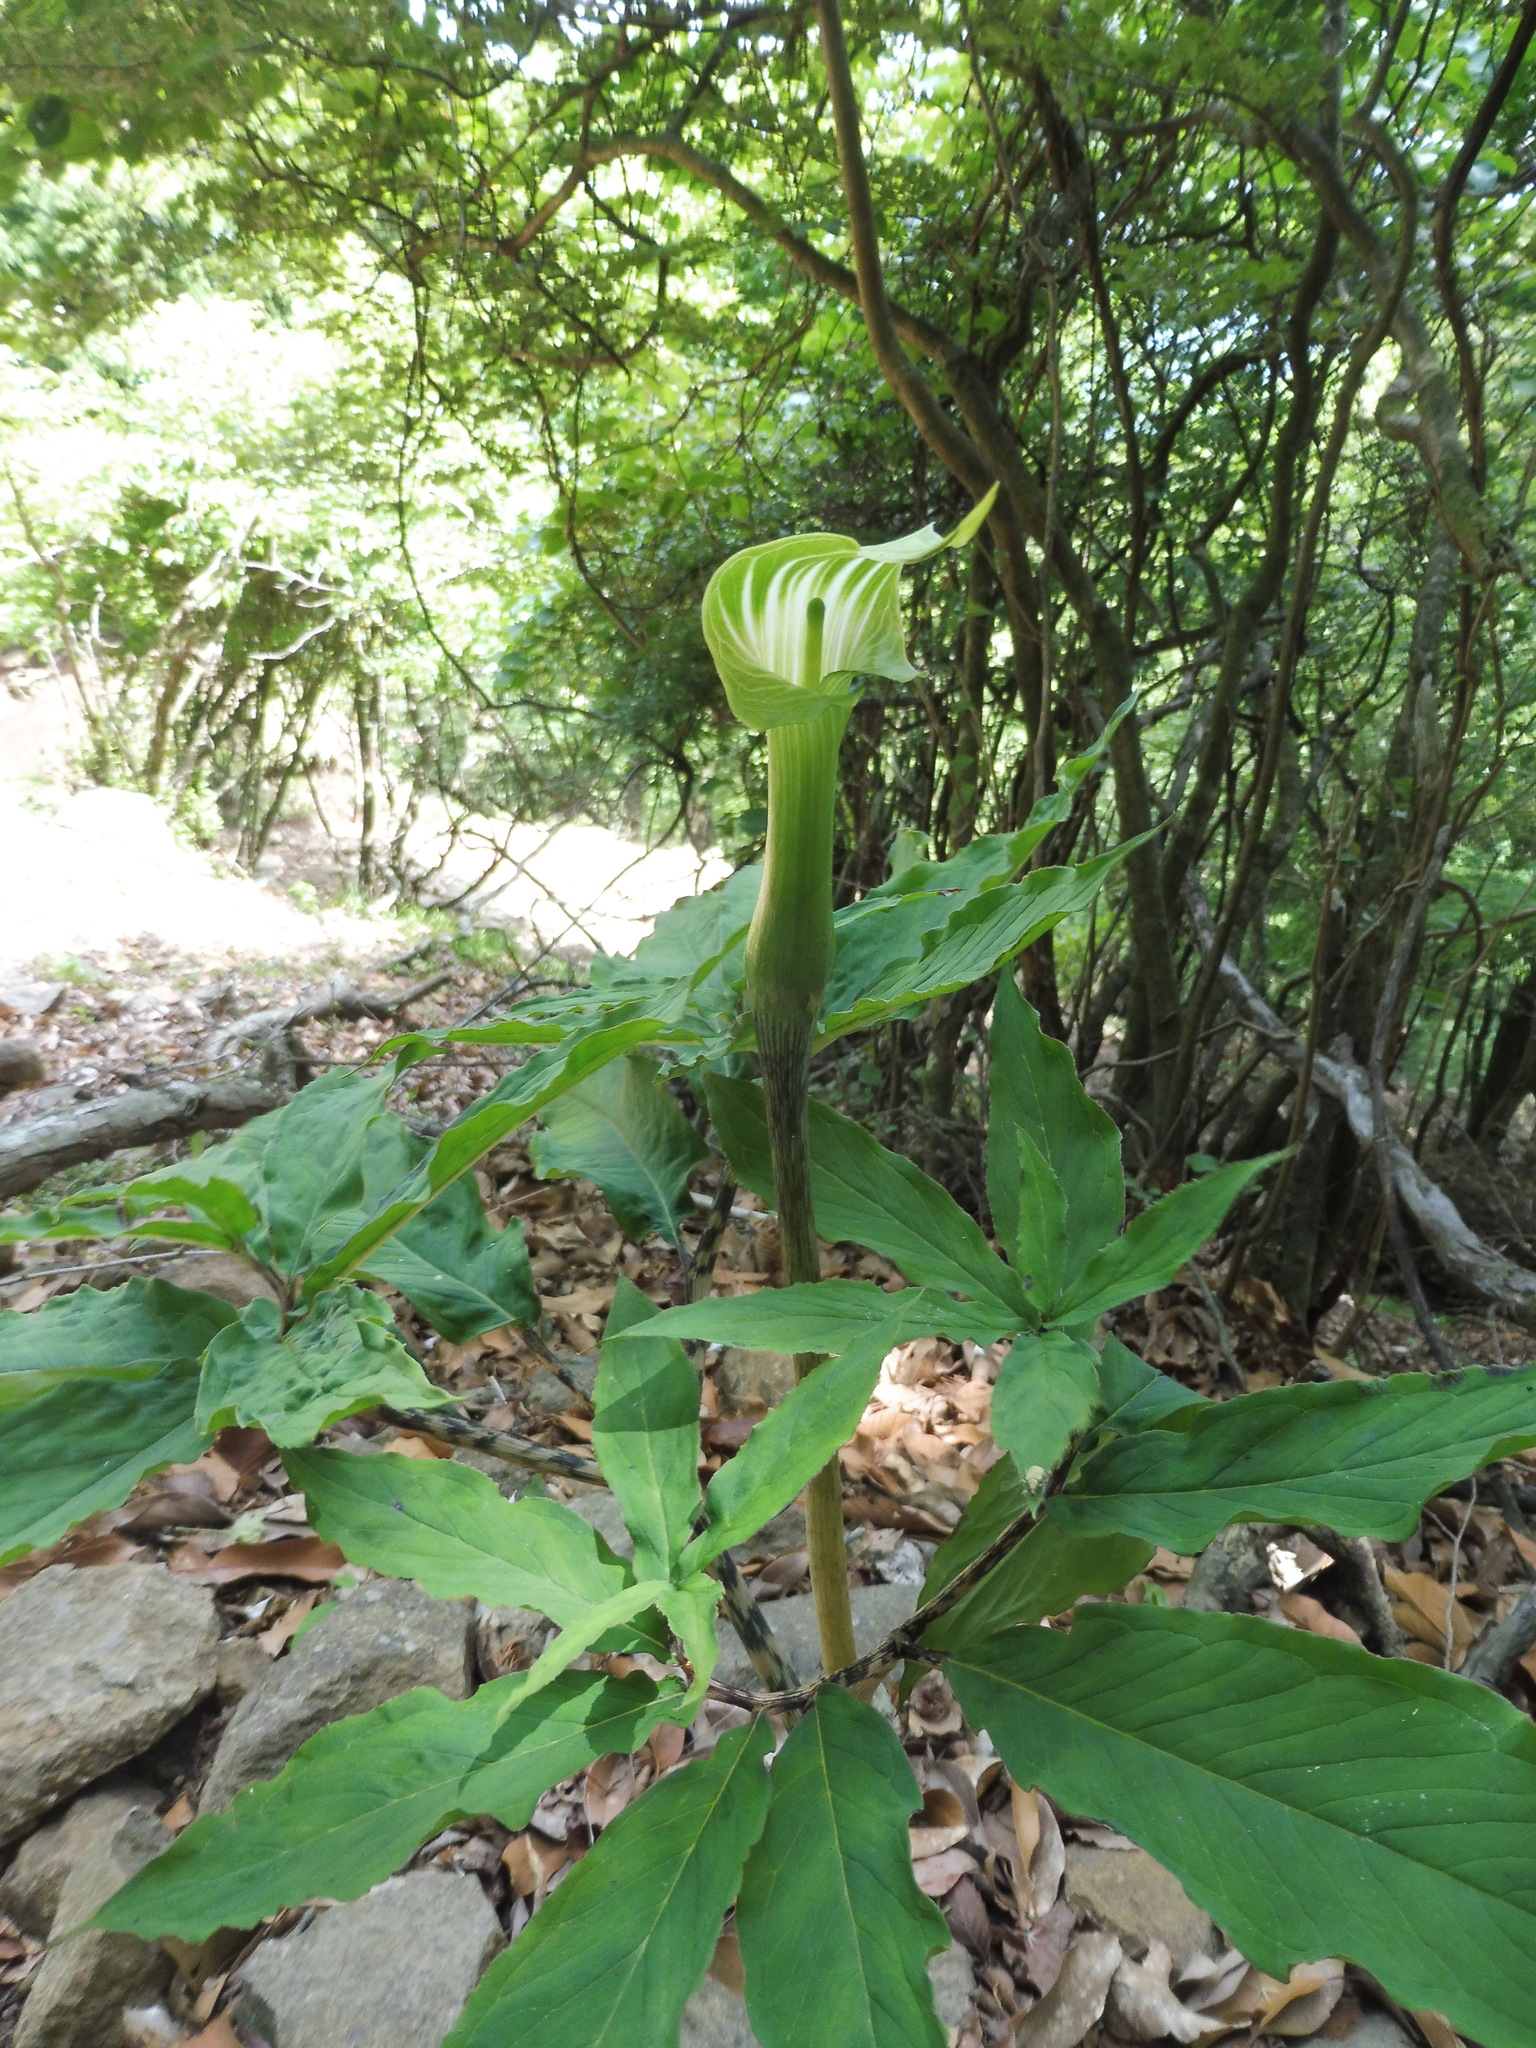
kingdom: Plantae
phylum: Tracheophyta
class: Liliopsida
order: Alismatales
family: Araceae
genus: Arisaema
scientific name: Arisaema angustatum
